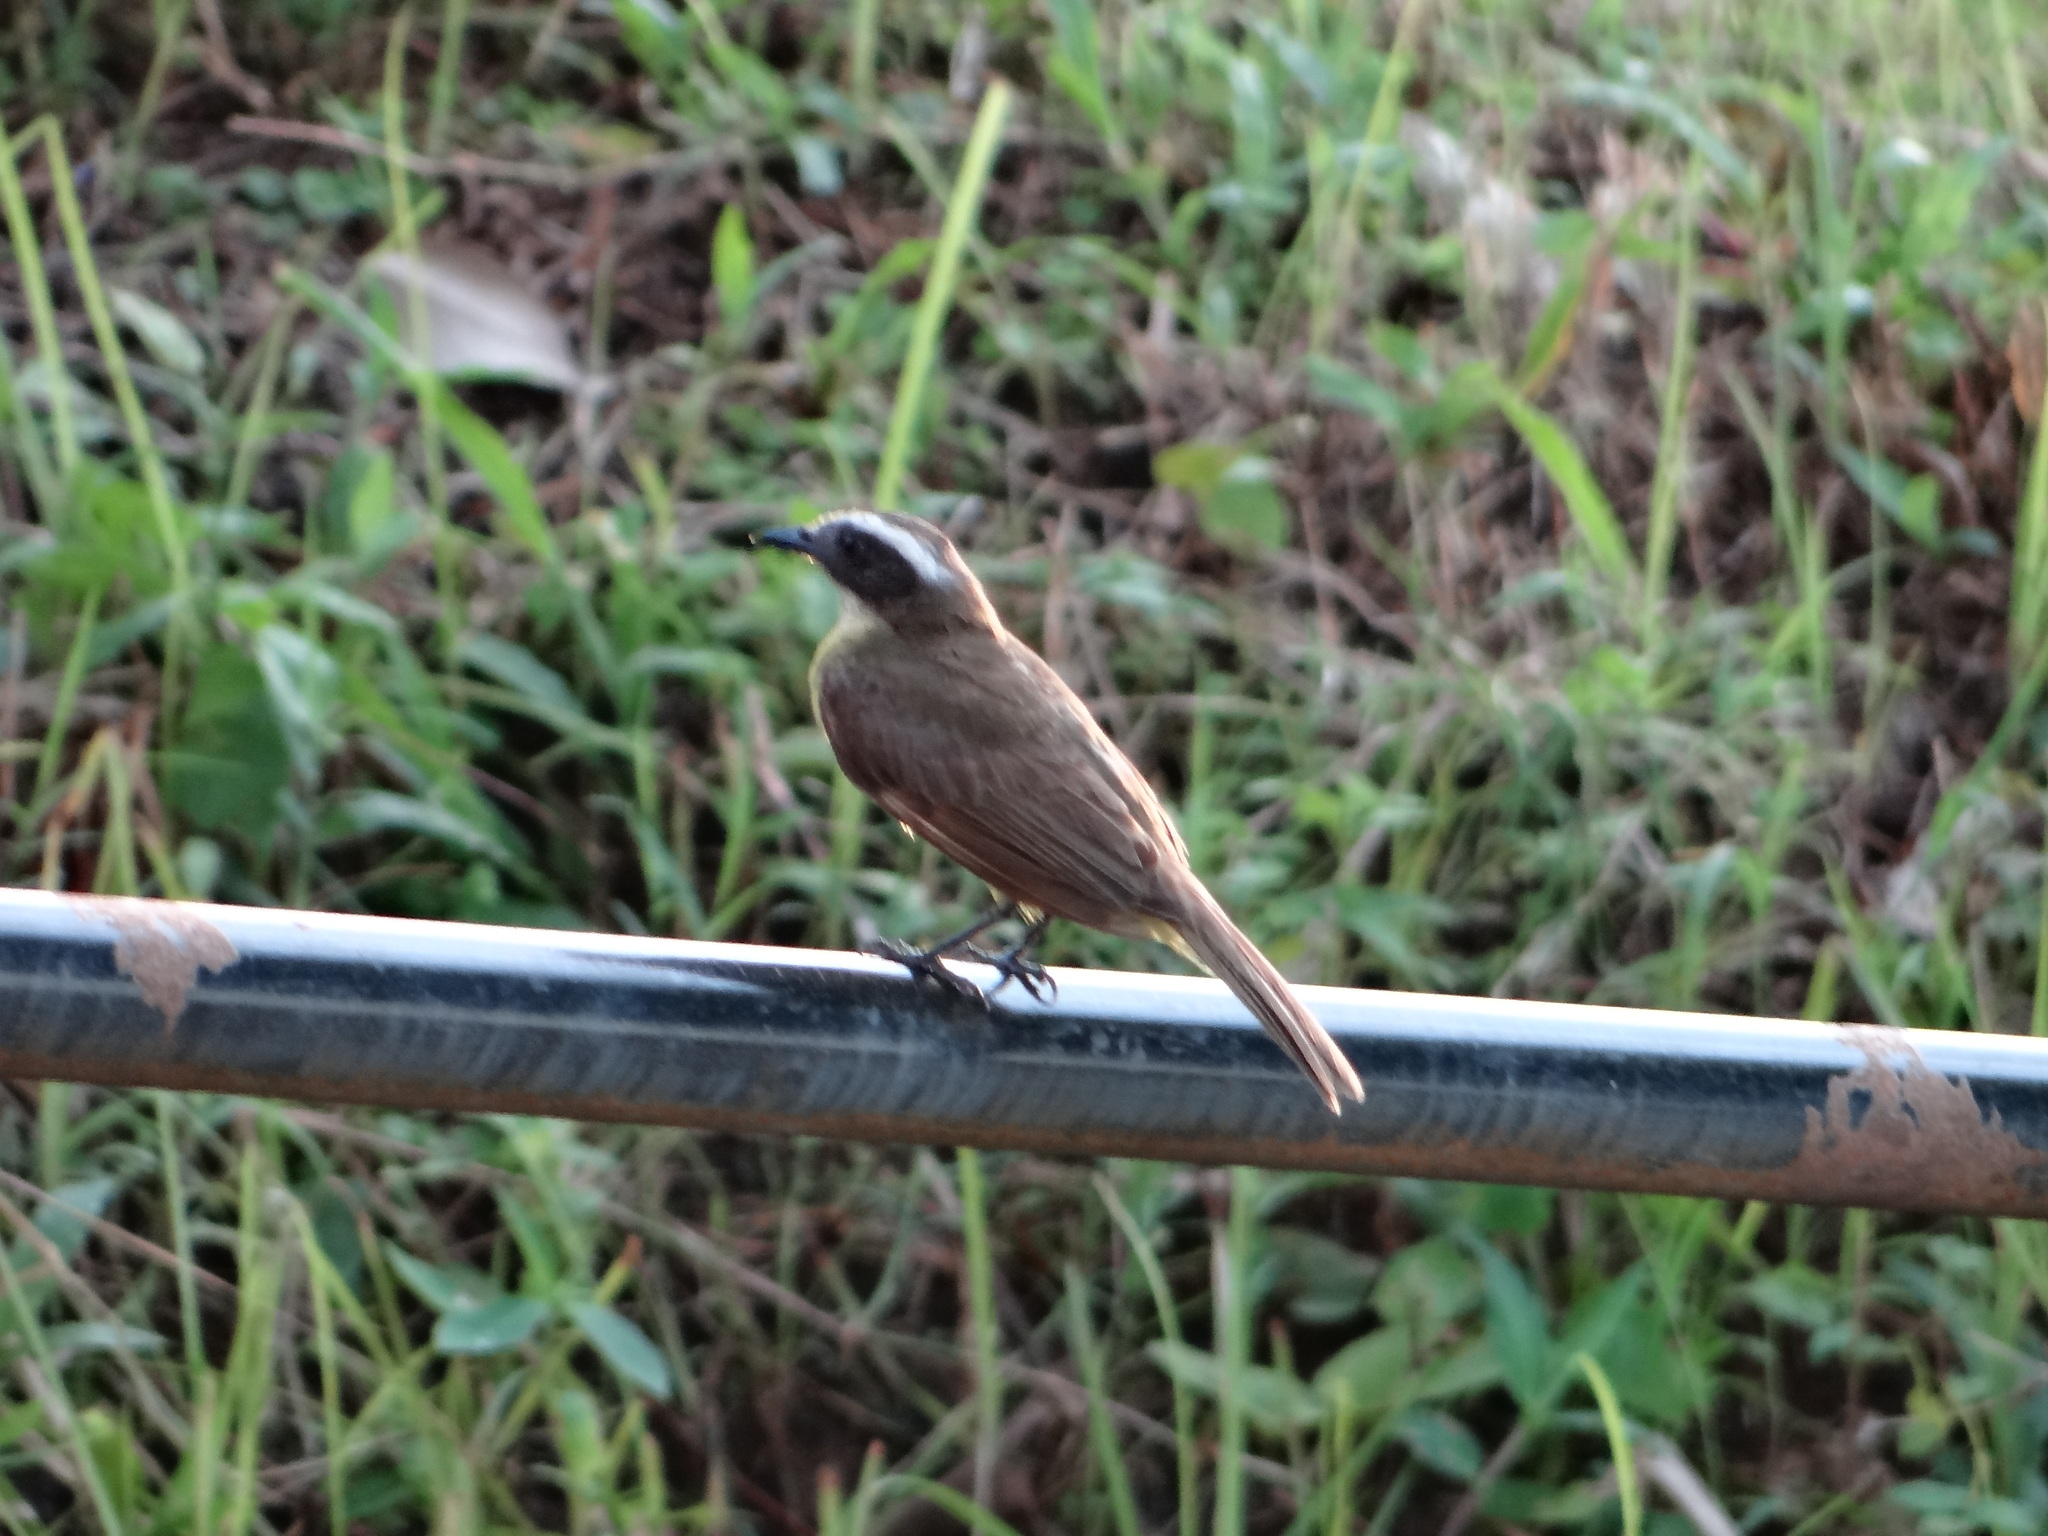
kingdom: Animalia
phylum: Chordata
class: Aves
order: Passeriformes
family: Tyrannidae
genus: Myiozetetes
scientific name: Myiozetetes cayanensis
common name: Rusty-margined flycatcher
